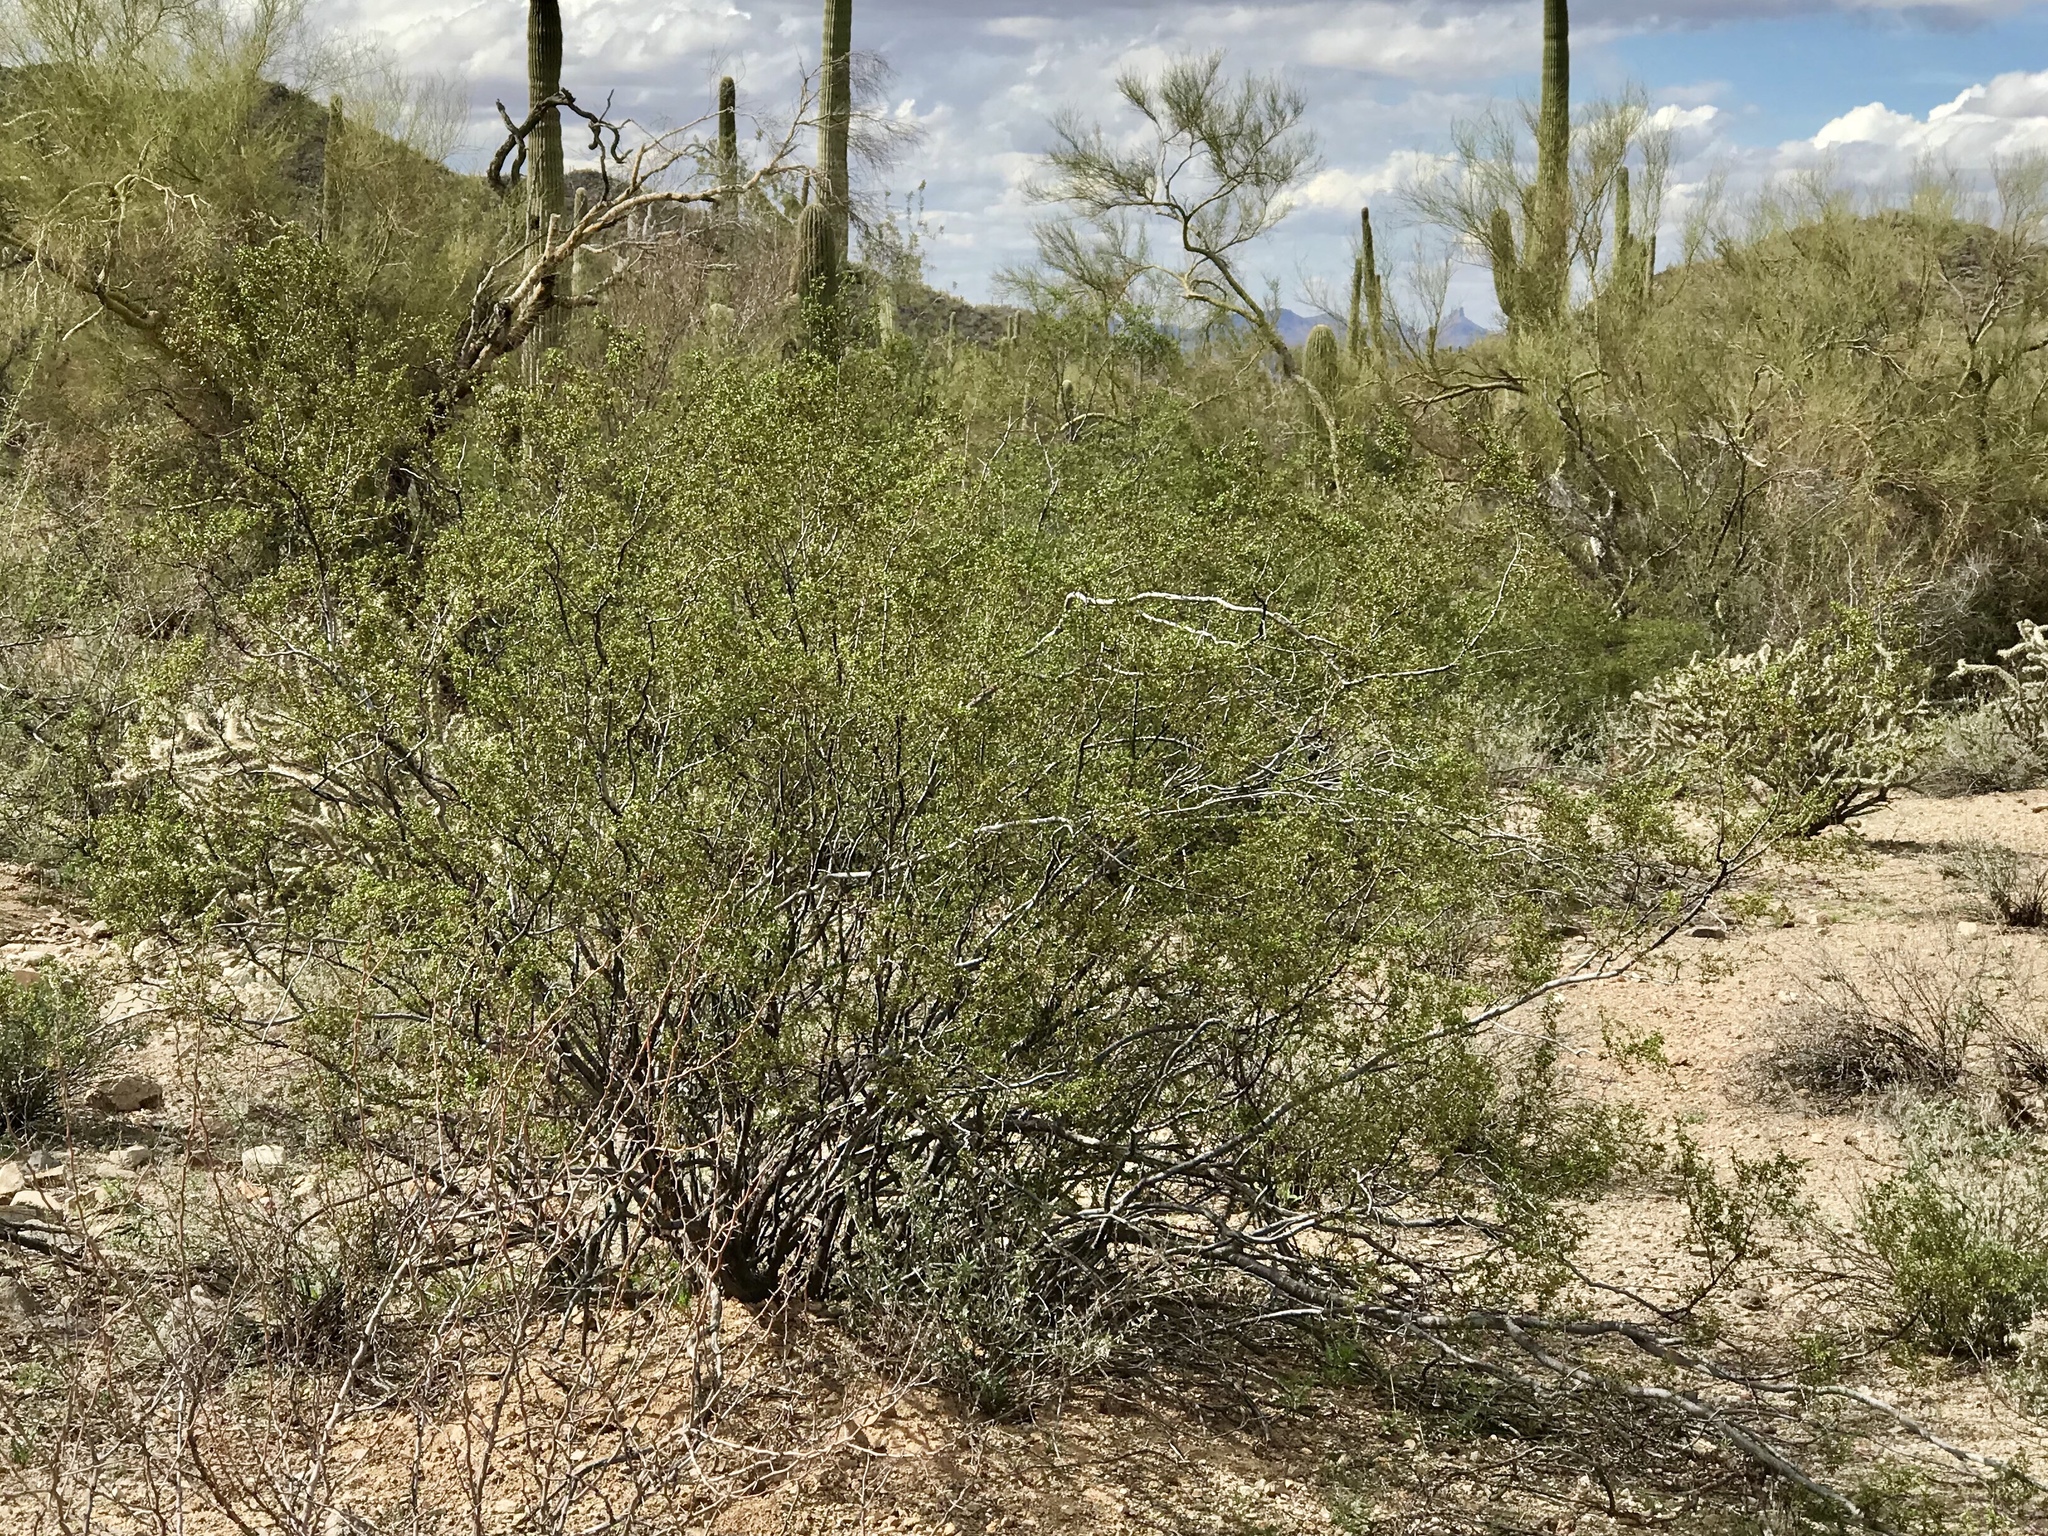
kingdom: Plantae
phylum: Tracheophyta
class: Magnoliopsida
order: Zygophyllales
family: Zygophyllaceae
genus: Larrea
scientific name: Larrea tridentata
